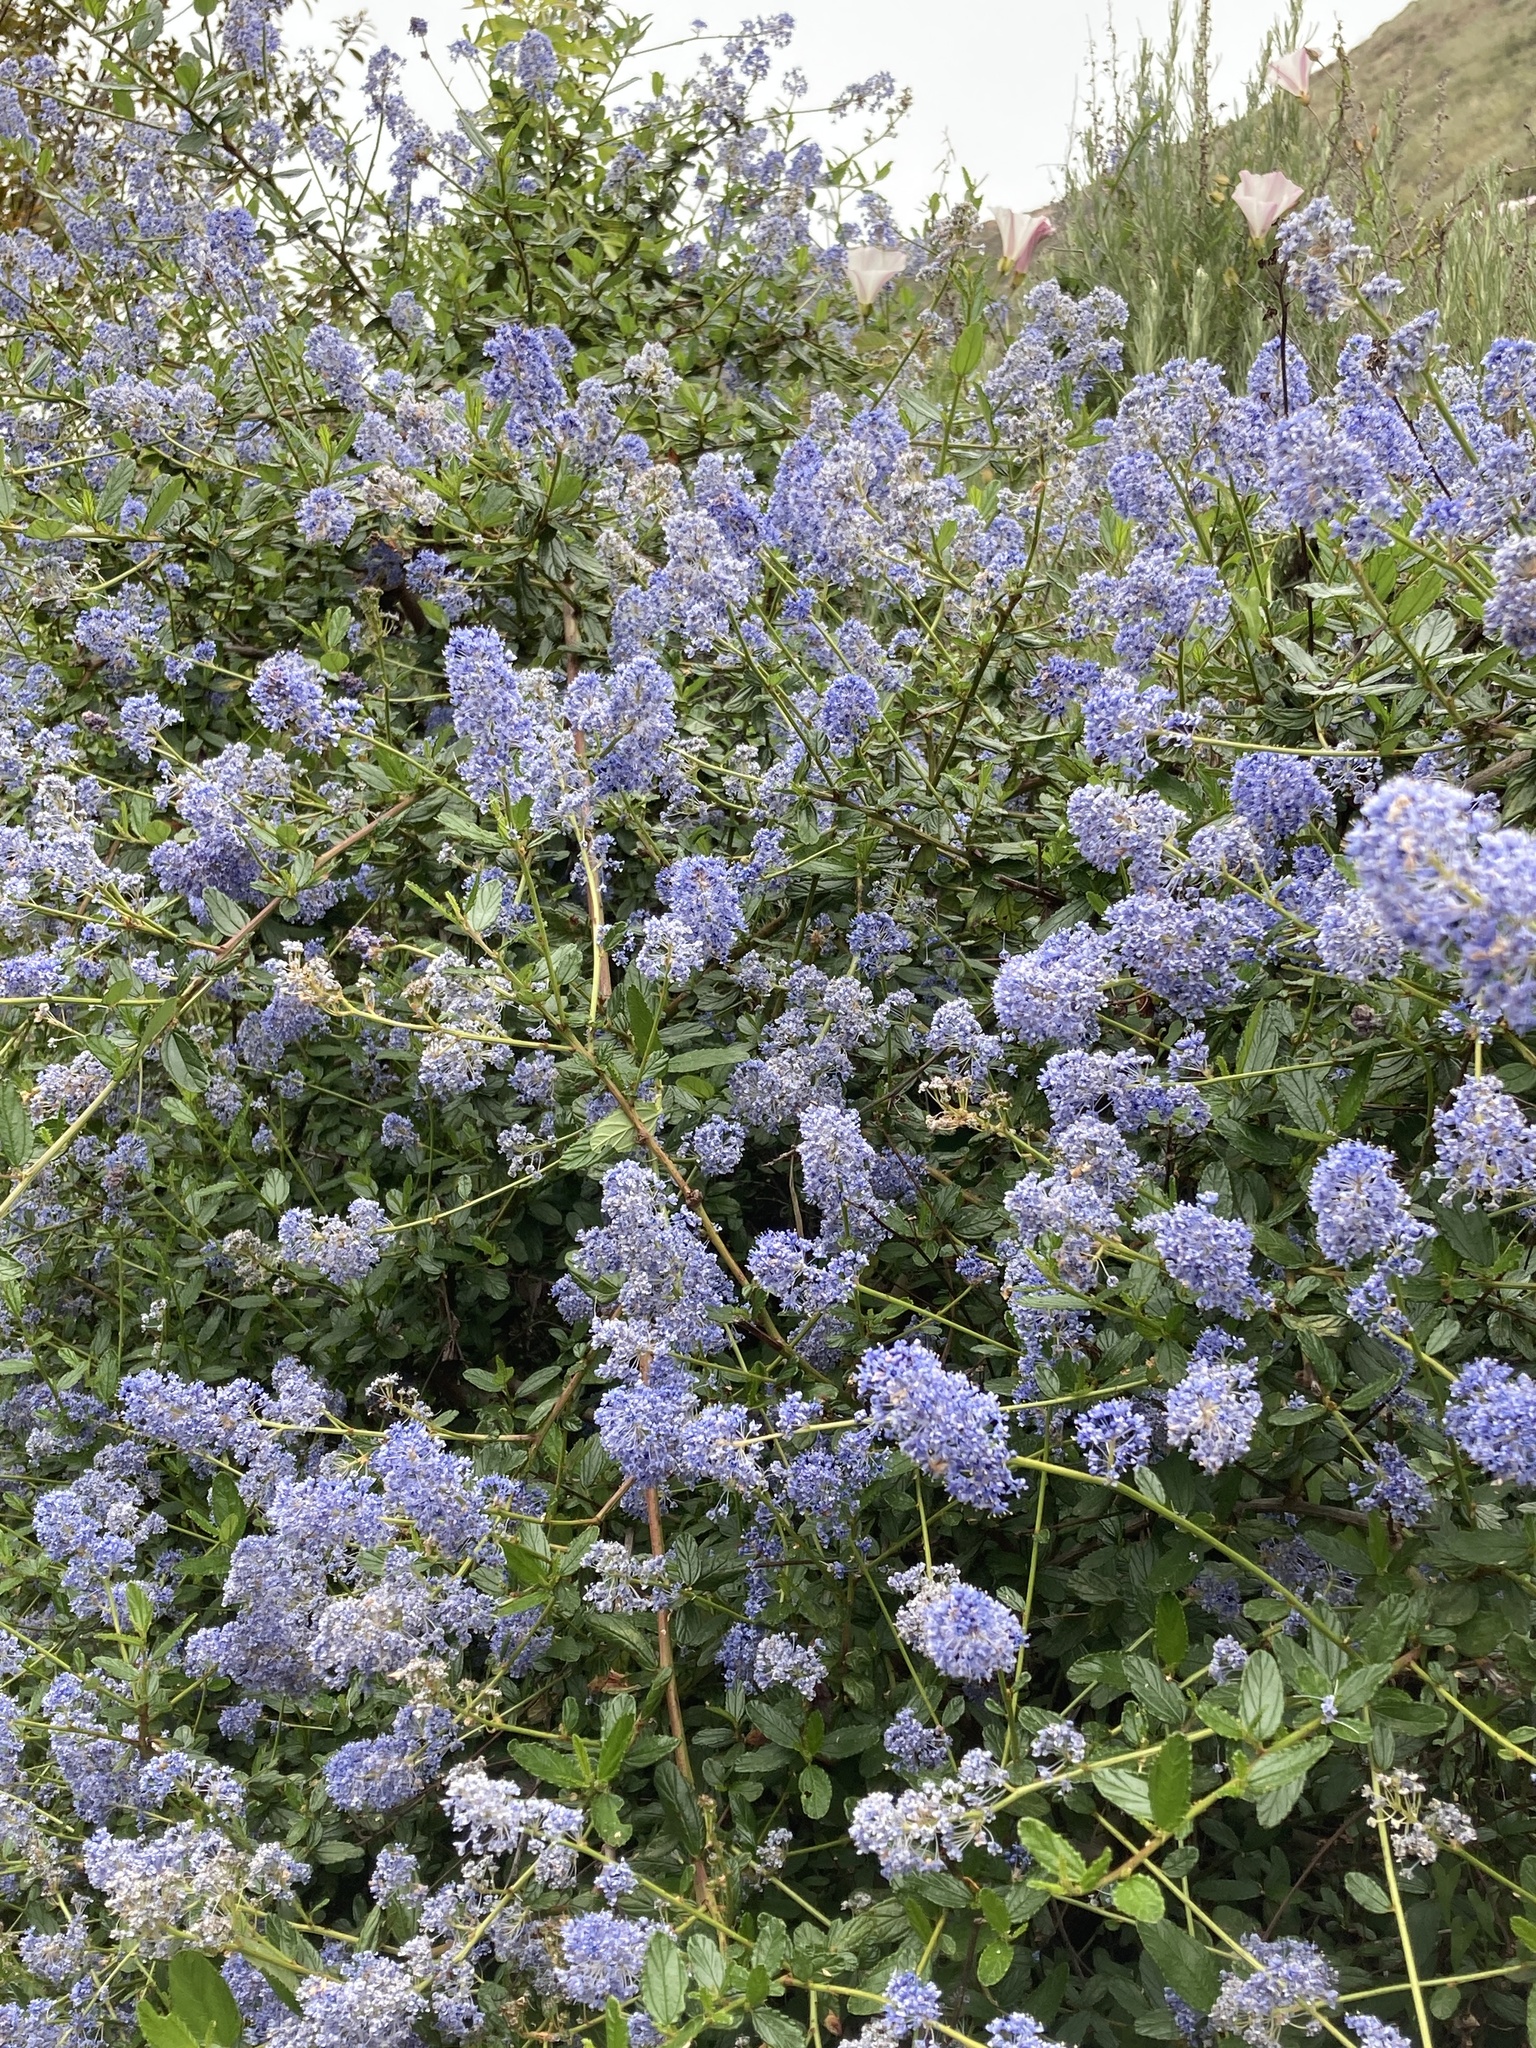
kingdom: Plantae
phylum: Tracheophyta
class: Magnoliopsida
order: Rosales
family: Rhamnaceae
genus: Ceanothus
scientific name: Ceanothus thyrsiflorus
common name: California-lilac
